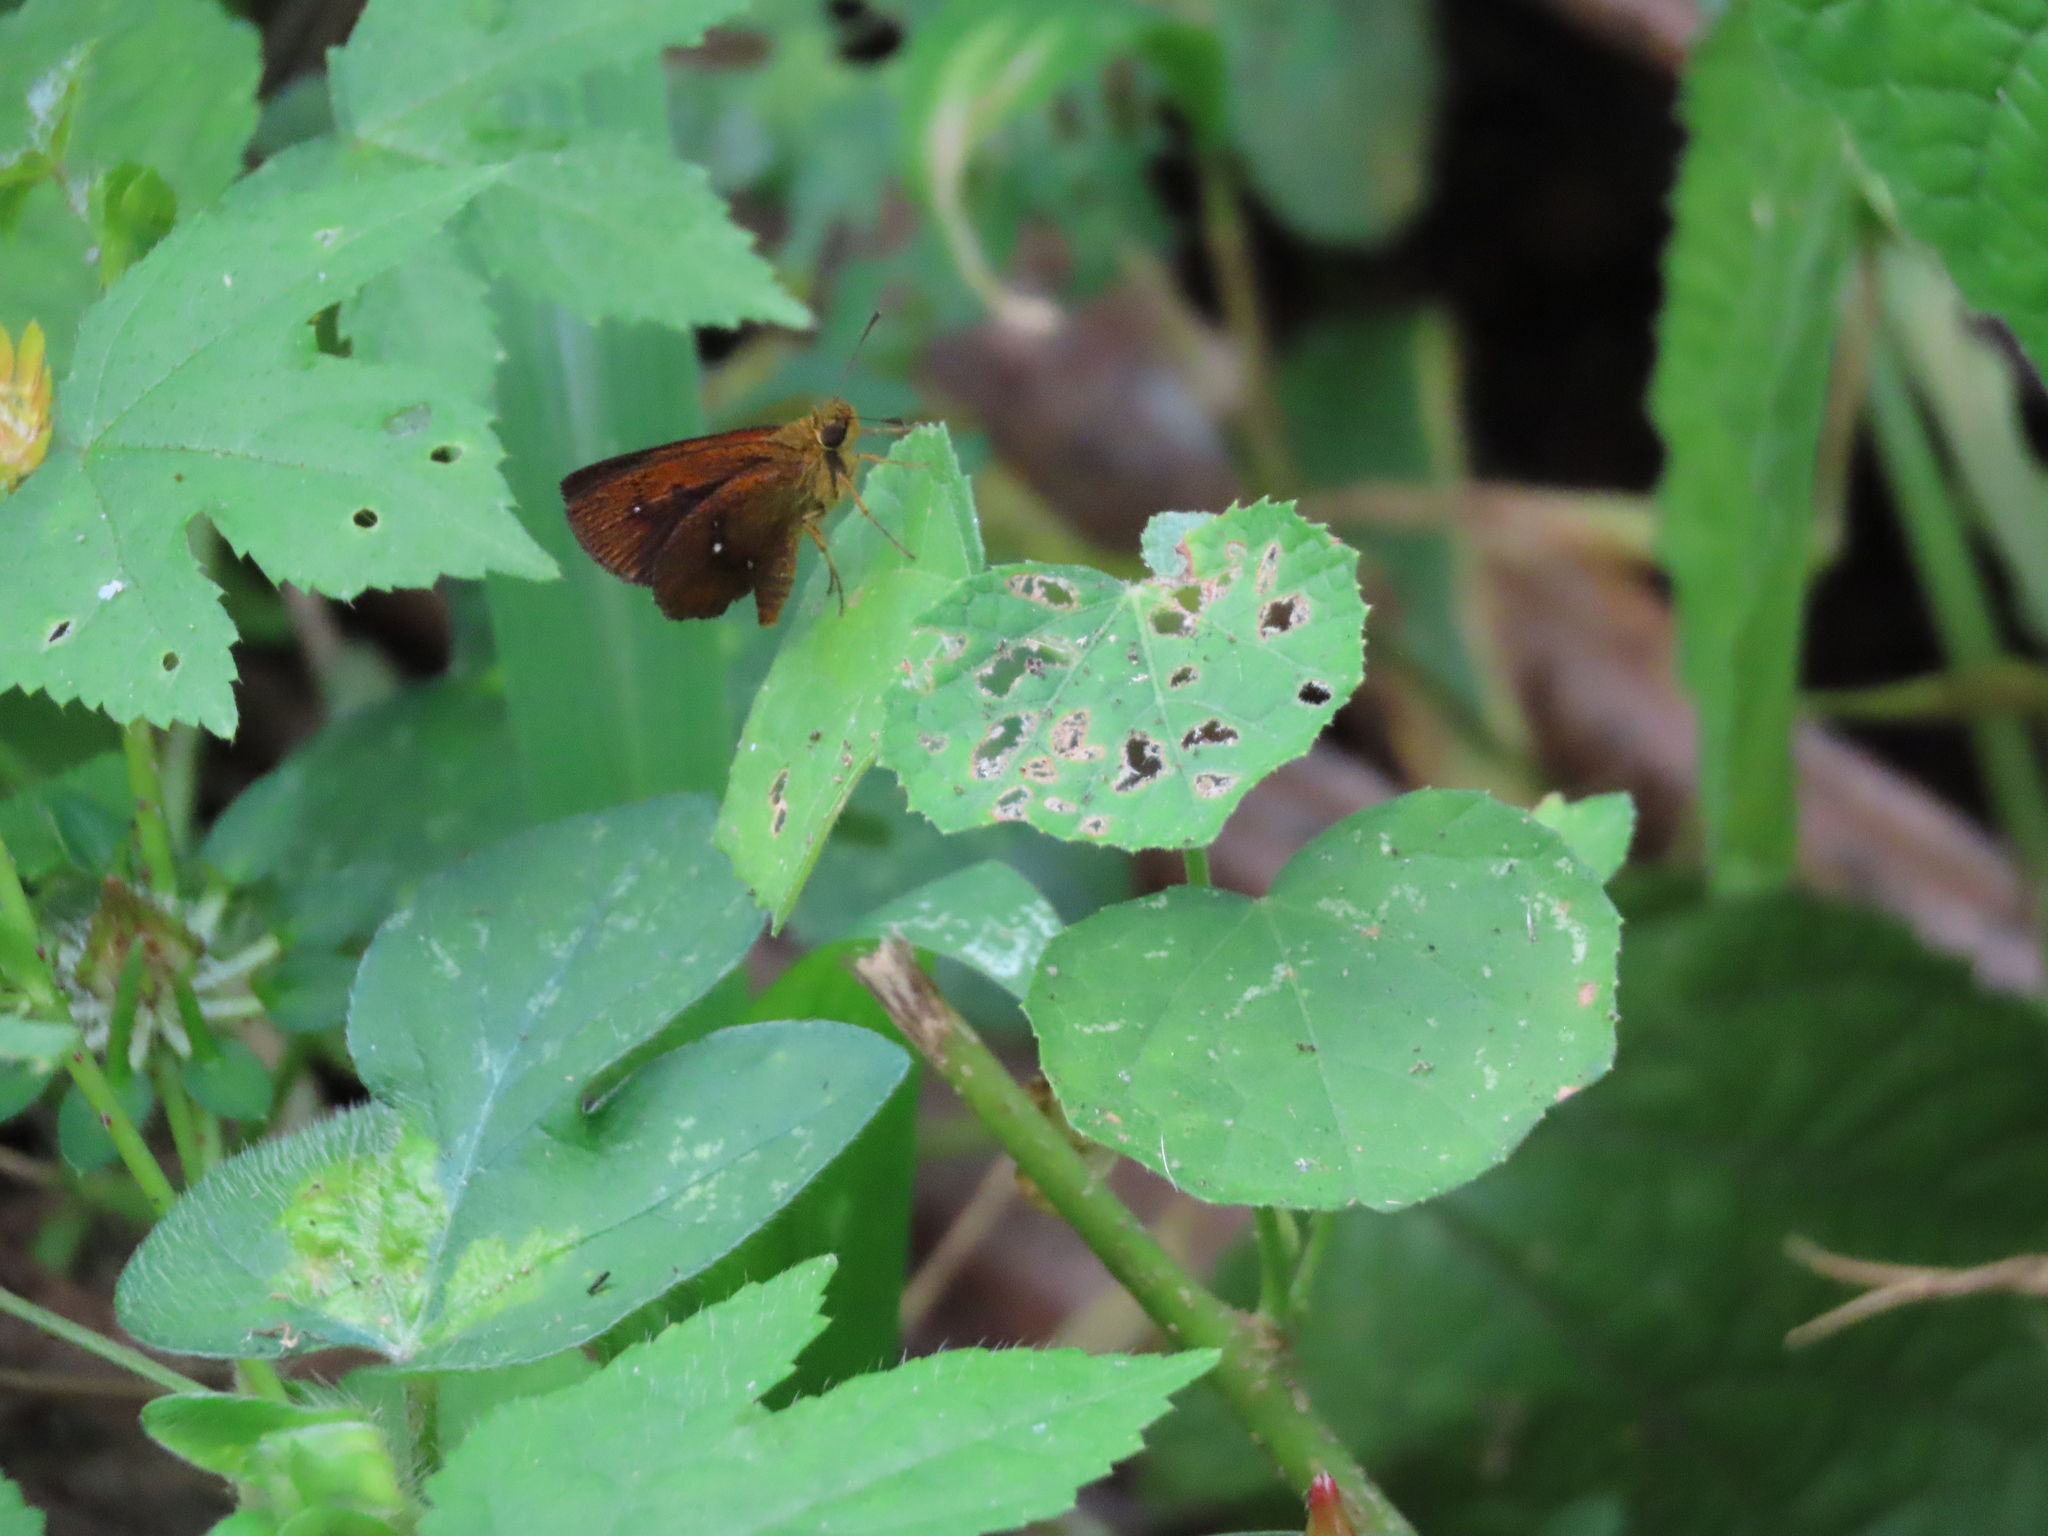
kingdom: Animalia
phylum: Arthropoda
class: Insecta
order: Lepidoptera
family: Hesperiidae
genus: Iambrix
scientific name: Iambrix salsala
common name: Chestnut bob
